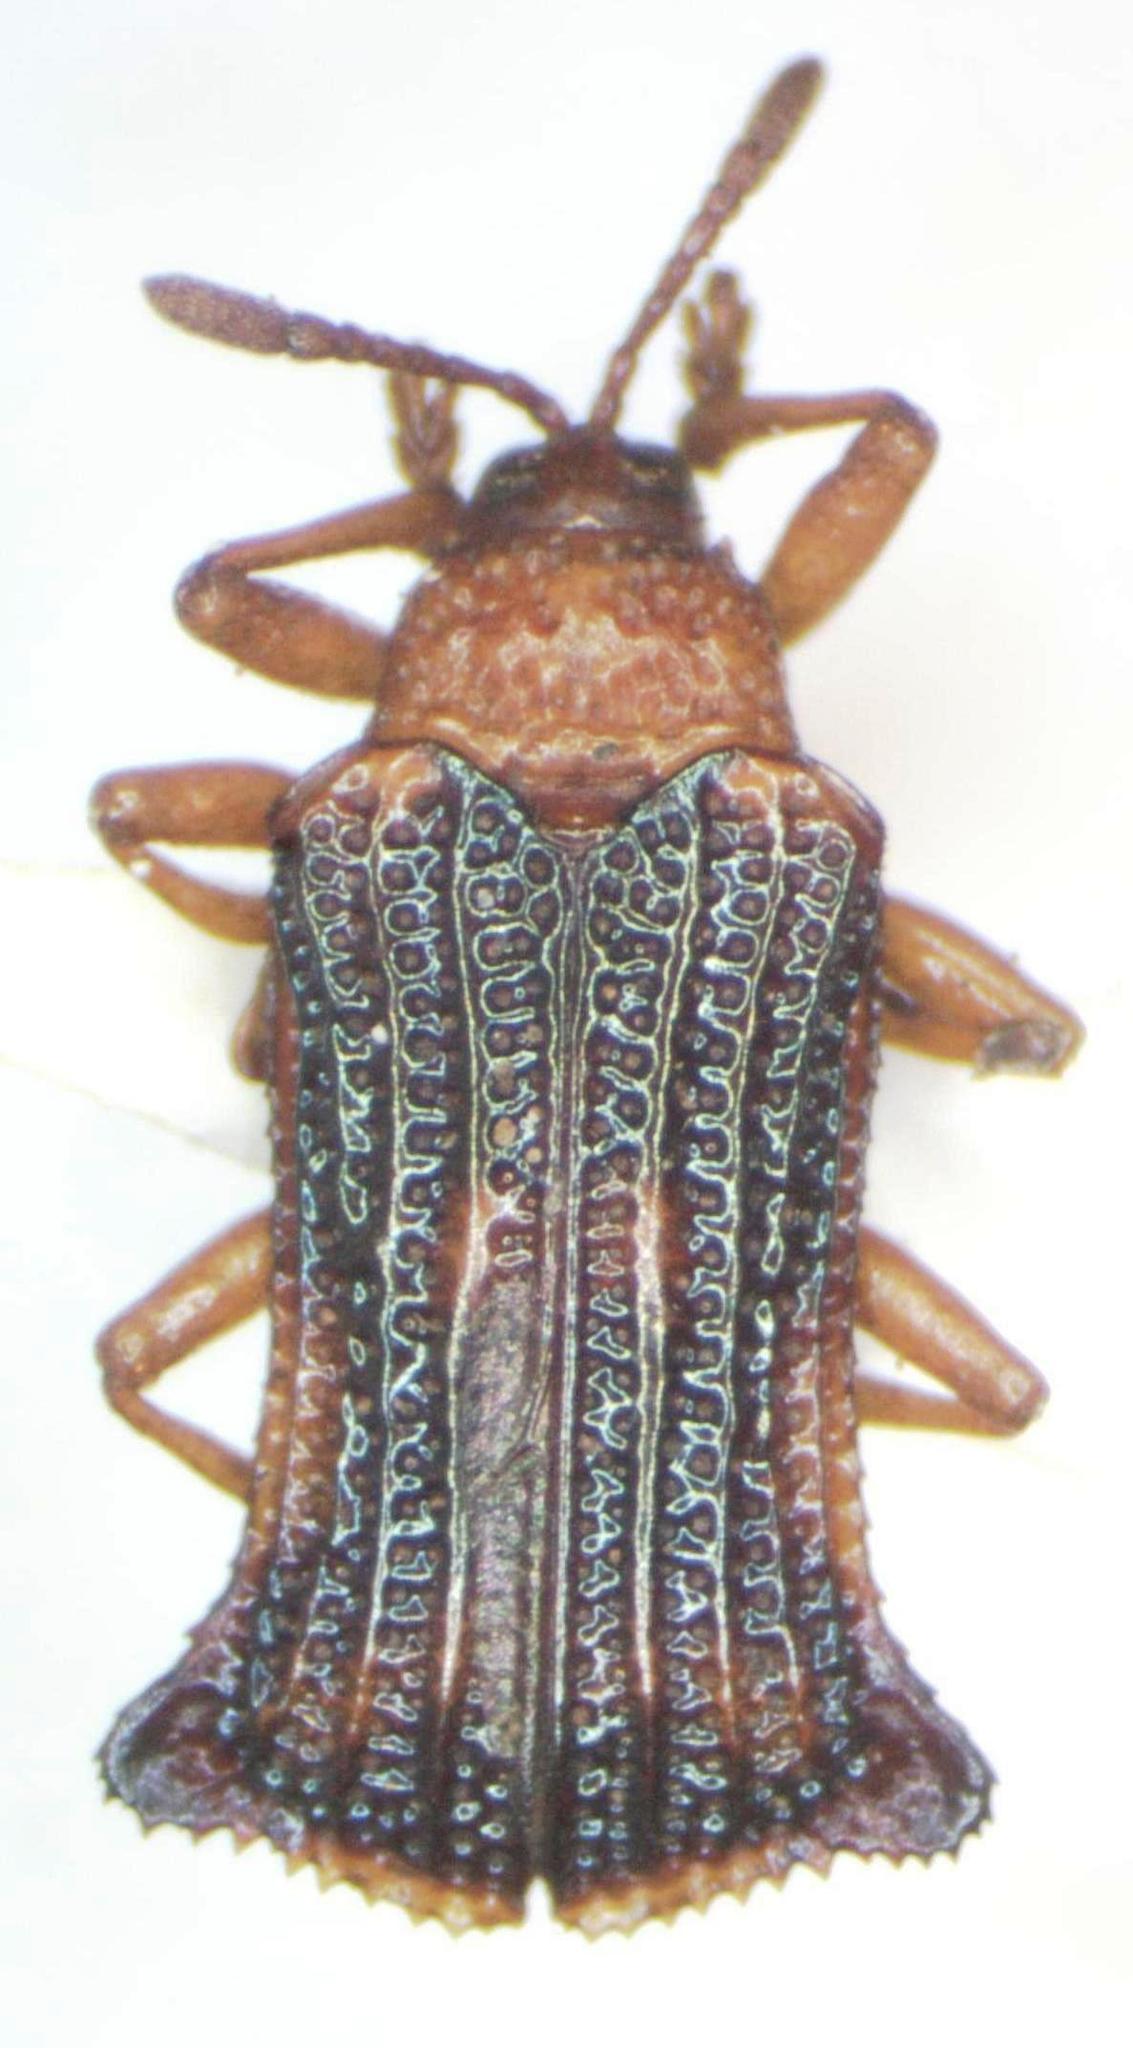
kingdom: Animalia
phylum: Arthropoda
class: Insecta
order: Coleoptera
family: Chrysomelidae
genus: Uroplata
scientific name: Uroplata fulvopustulata
